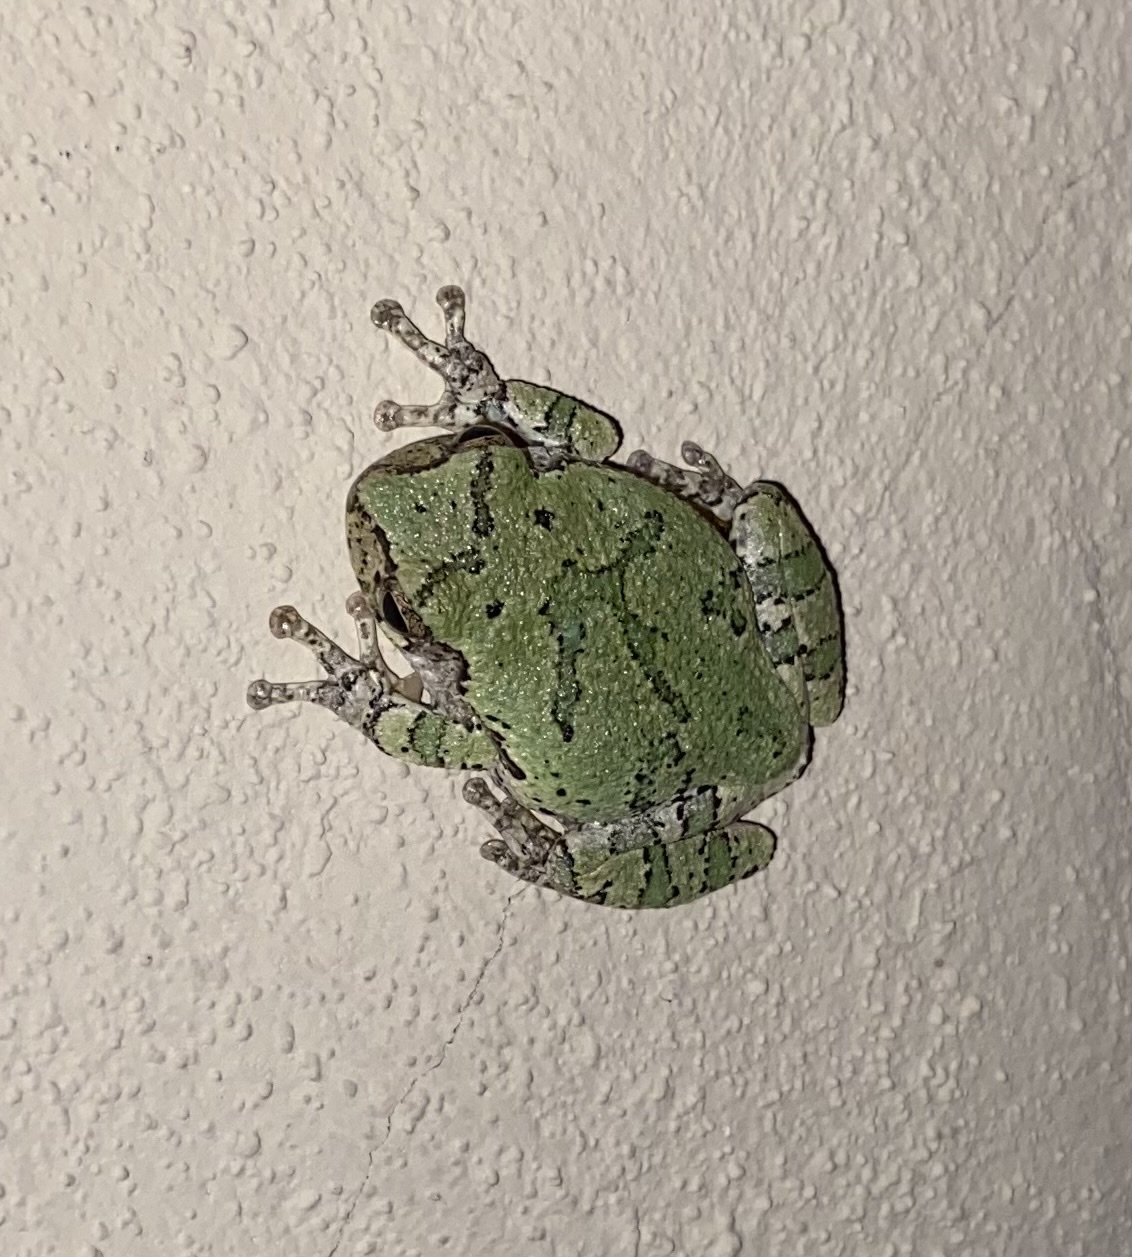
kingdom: Animalia
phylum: Chordata
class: Amphibia
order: Anura
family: Hylidae
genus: Hyla
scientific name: Hyla
